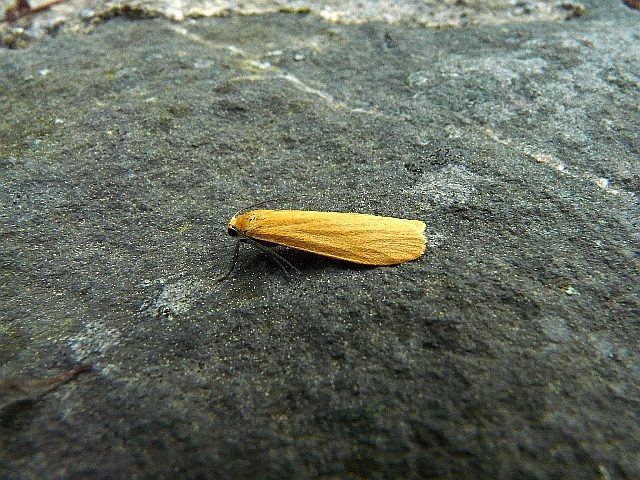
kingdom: Animalia
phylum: Arthropoda
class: Insecta
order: Lepidoptera
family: Erebidae
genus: Wittia
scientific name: Wittia sororcula
